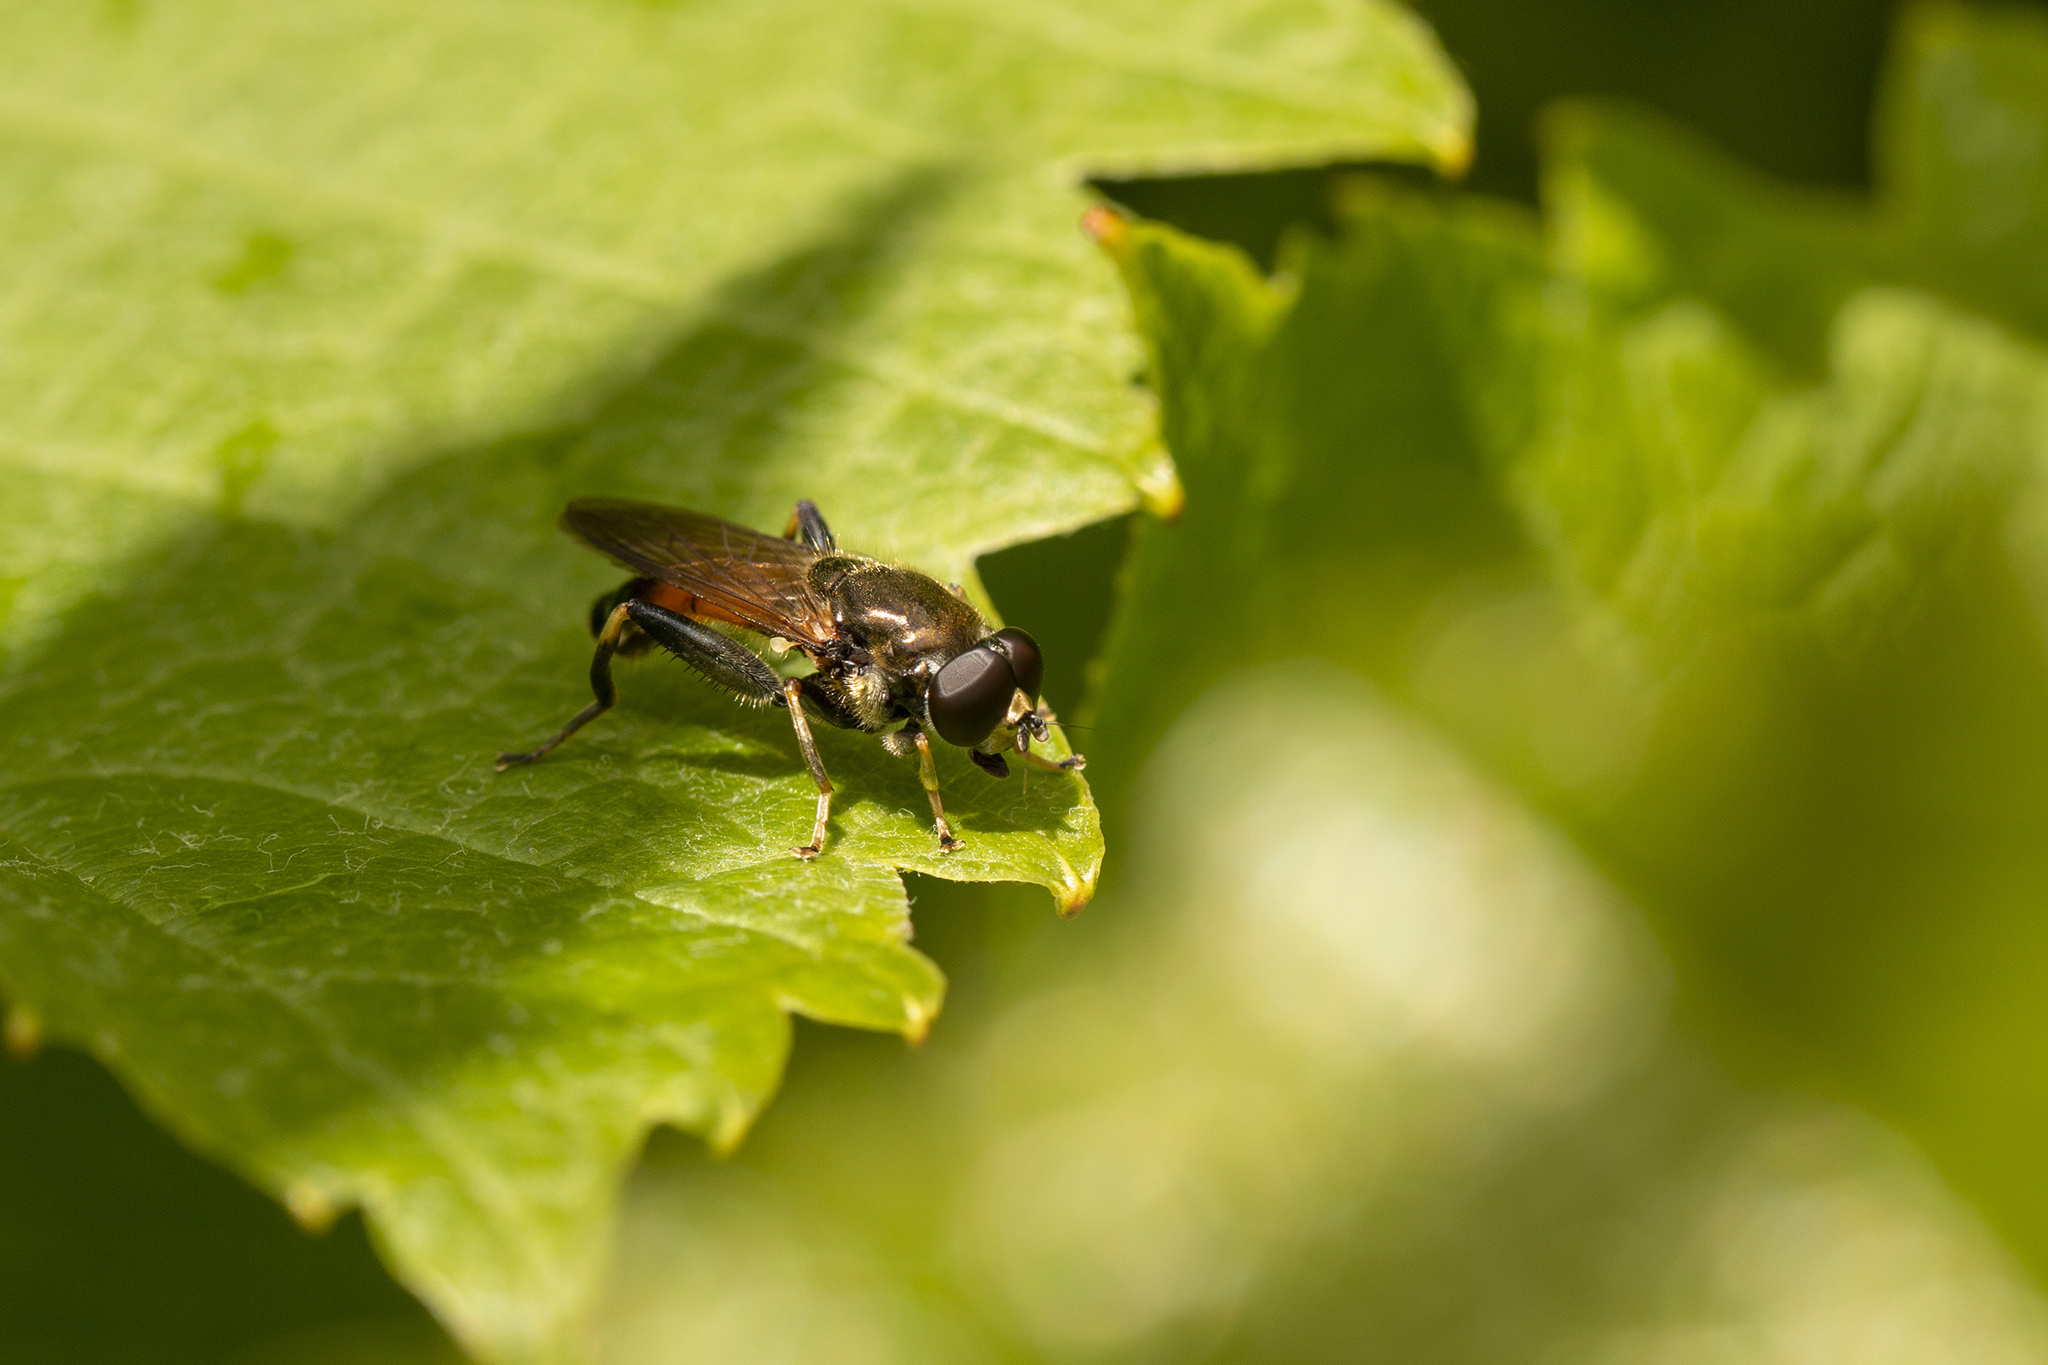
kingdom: Animalia
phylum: Arthropoda
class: Insecta
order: Diptera
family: Syrphidae
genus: Xylota
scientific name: Xylota segnis
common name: Brown-toed forest fly
